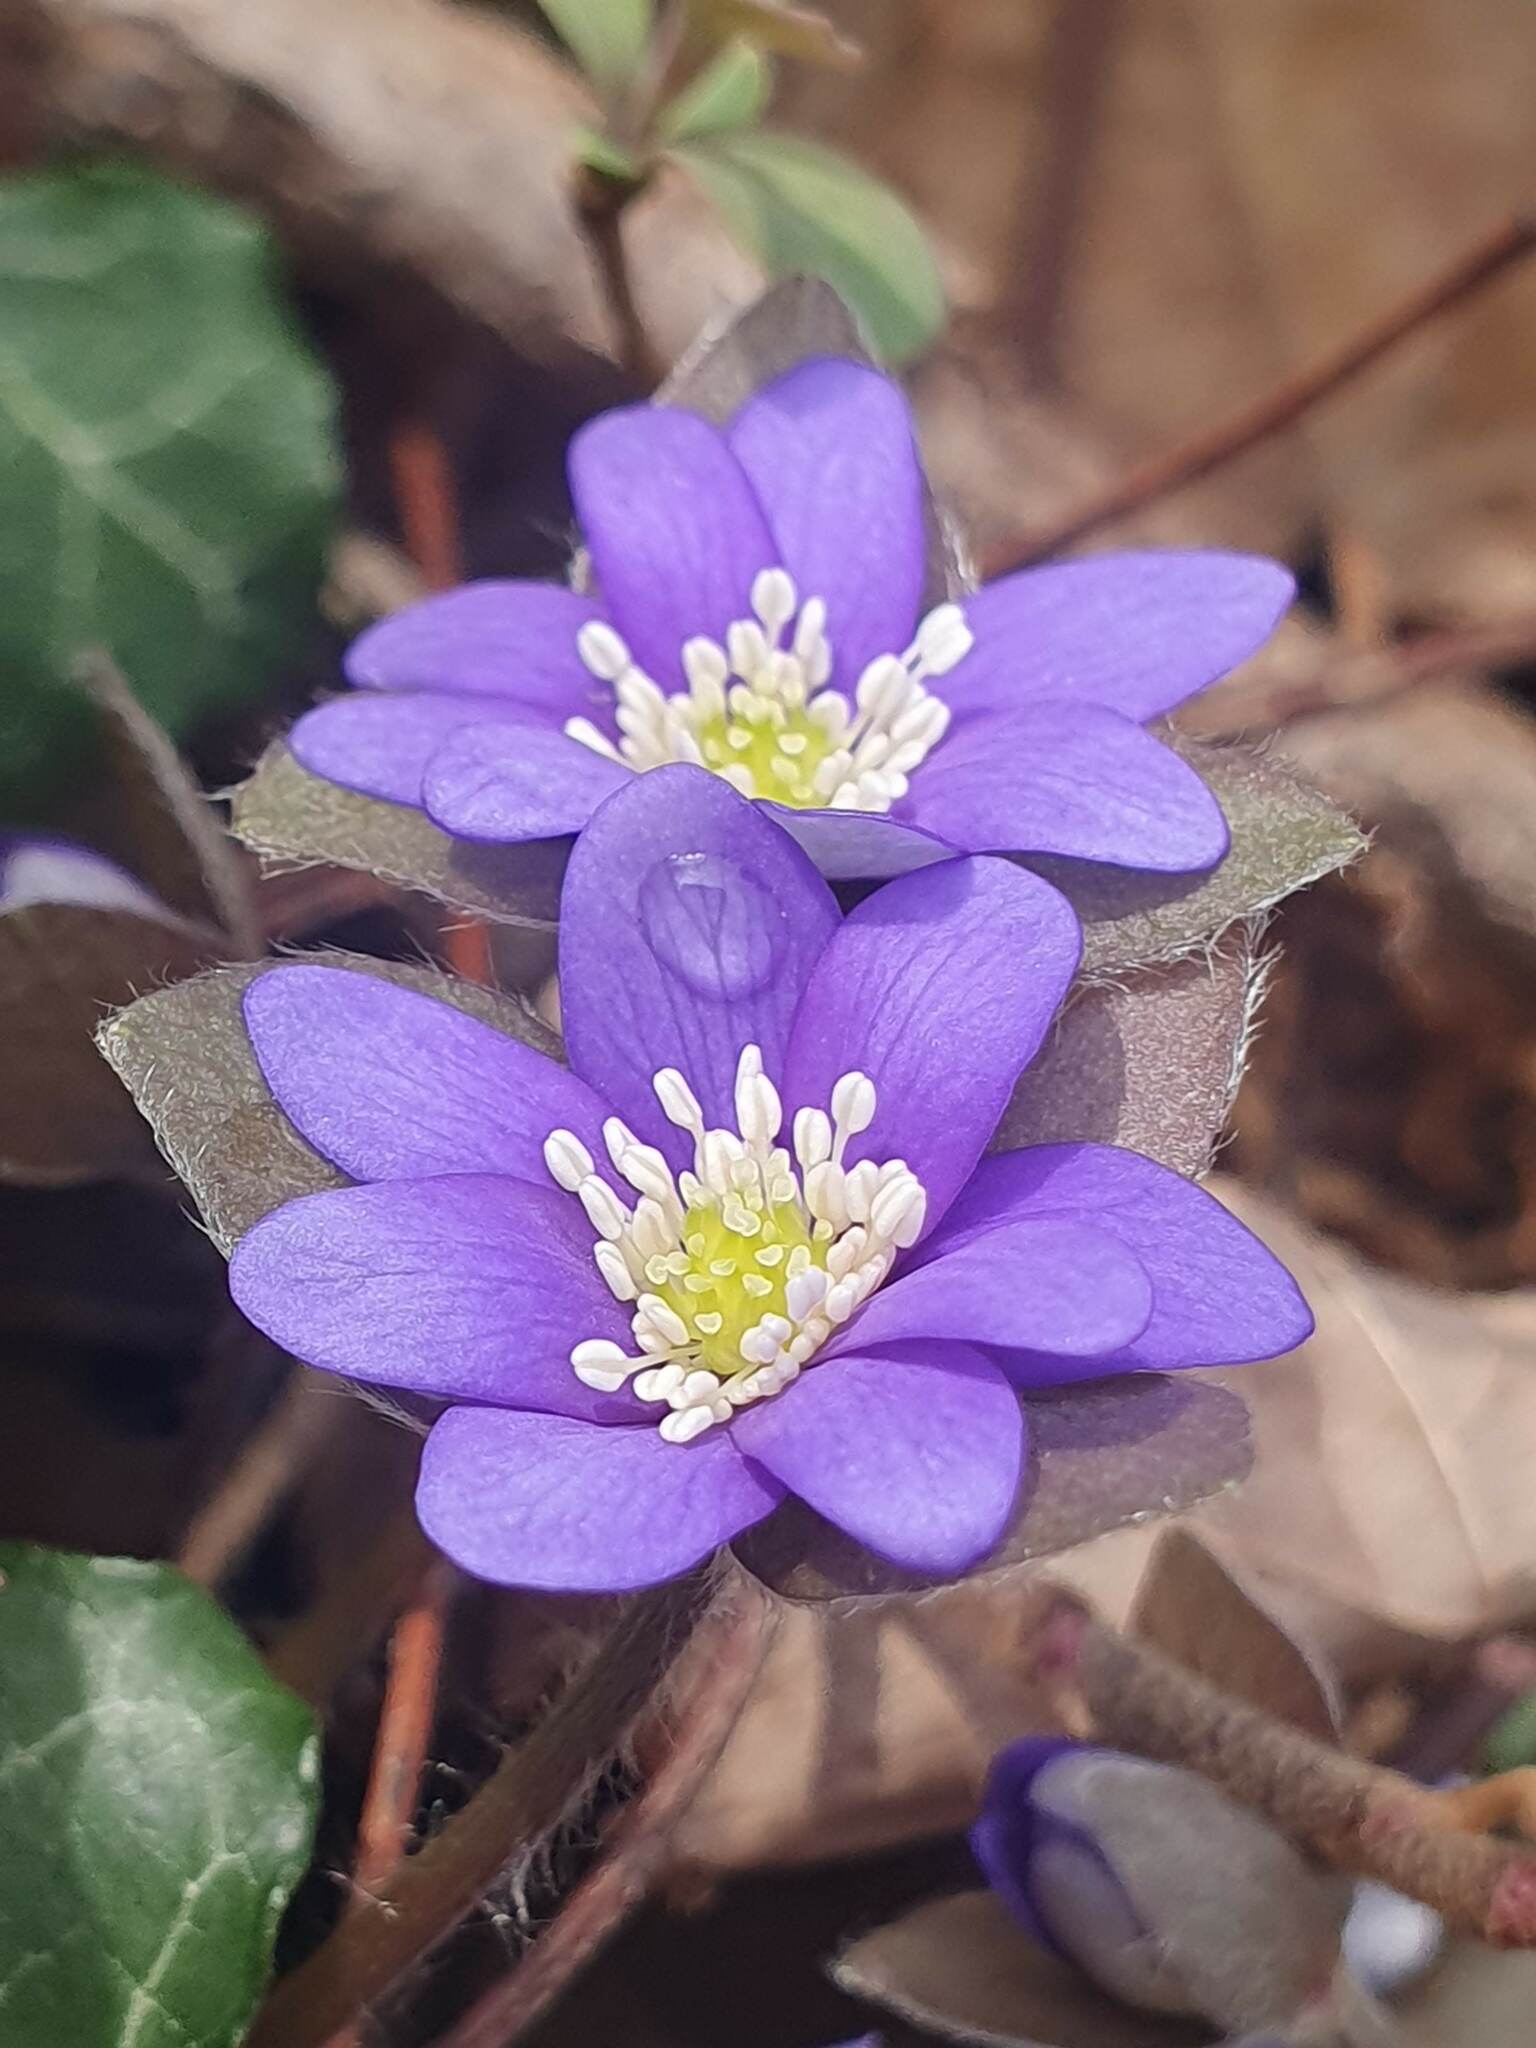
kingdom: Plantae
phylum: Tracheophyta
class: Magnoliopsida
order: Ranunculales
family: Ranunculaceae
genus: Hepatica
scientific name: Hepatica nobilis
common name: Liverleaf
